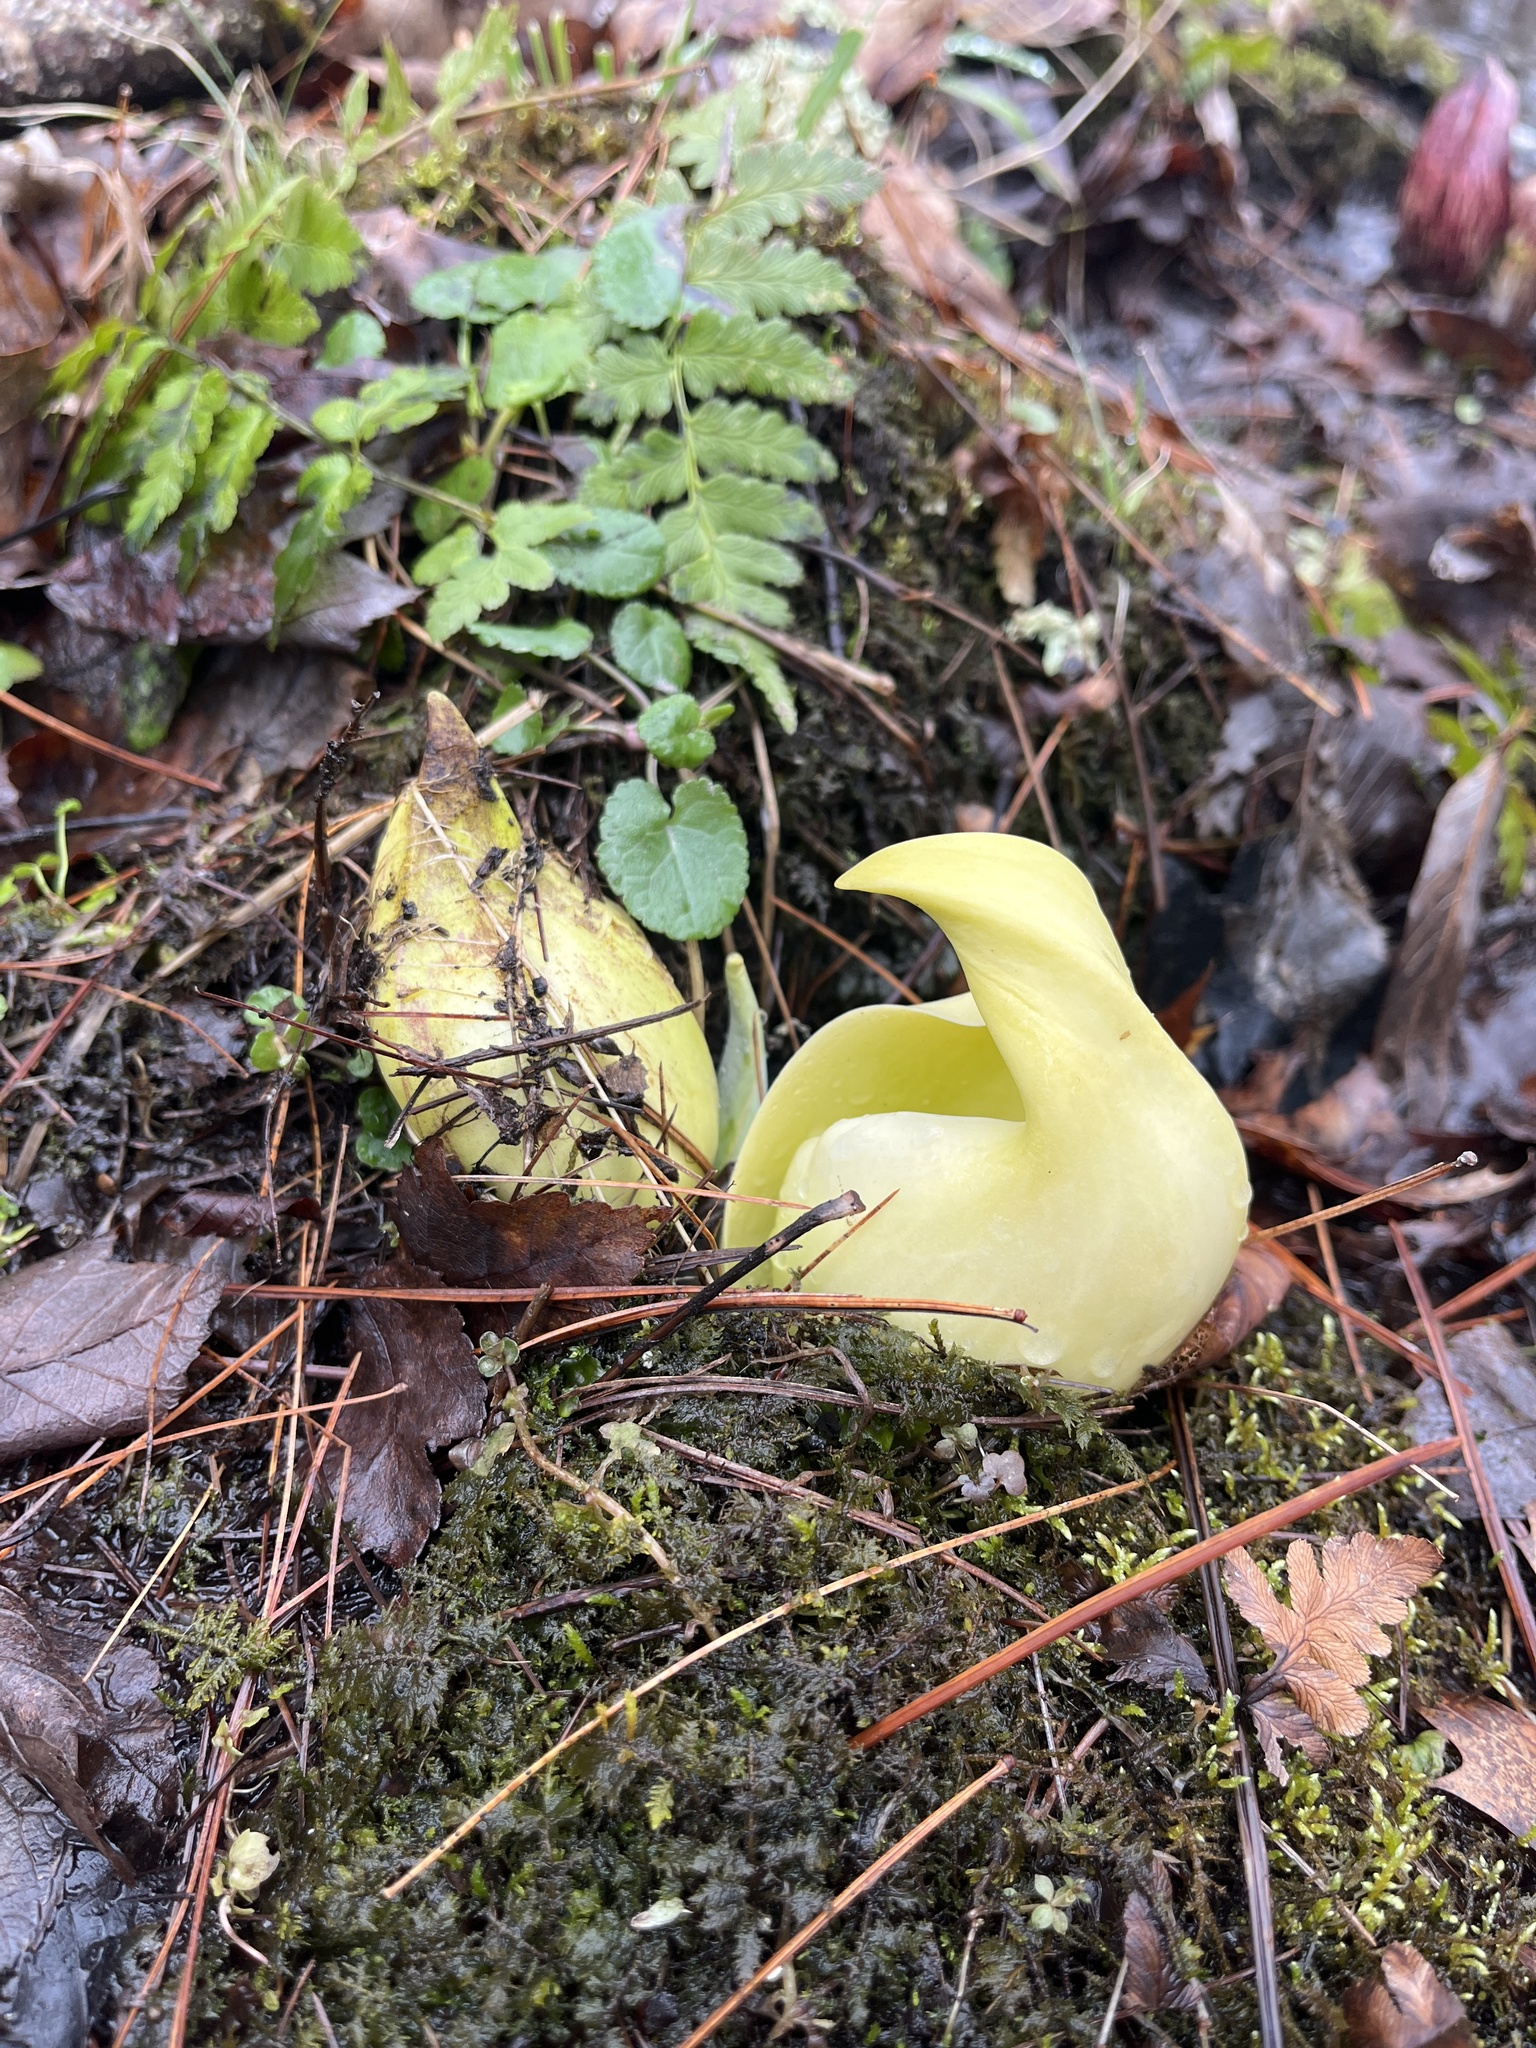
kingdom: Plantae
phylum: Tracheophyta
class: Liliopsida
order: Alismatales
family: Araceae
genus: Symplocarpus
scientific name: Symplocarpus foetidus
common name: Eastern skunk cabbage
